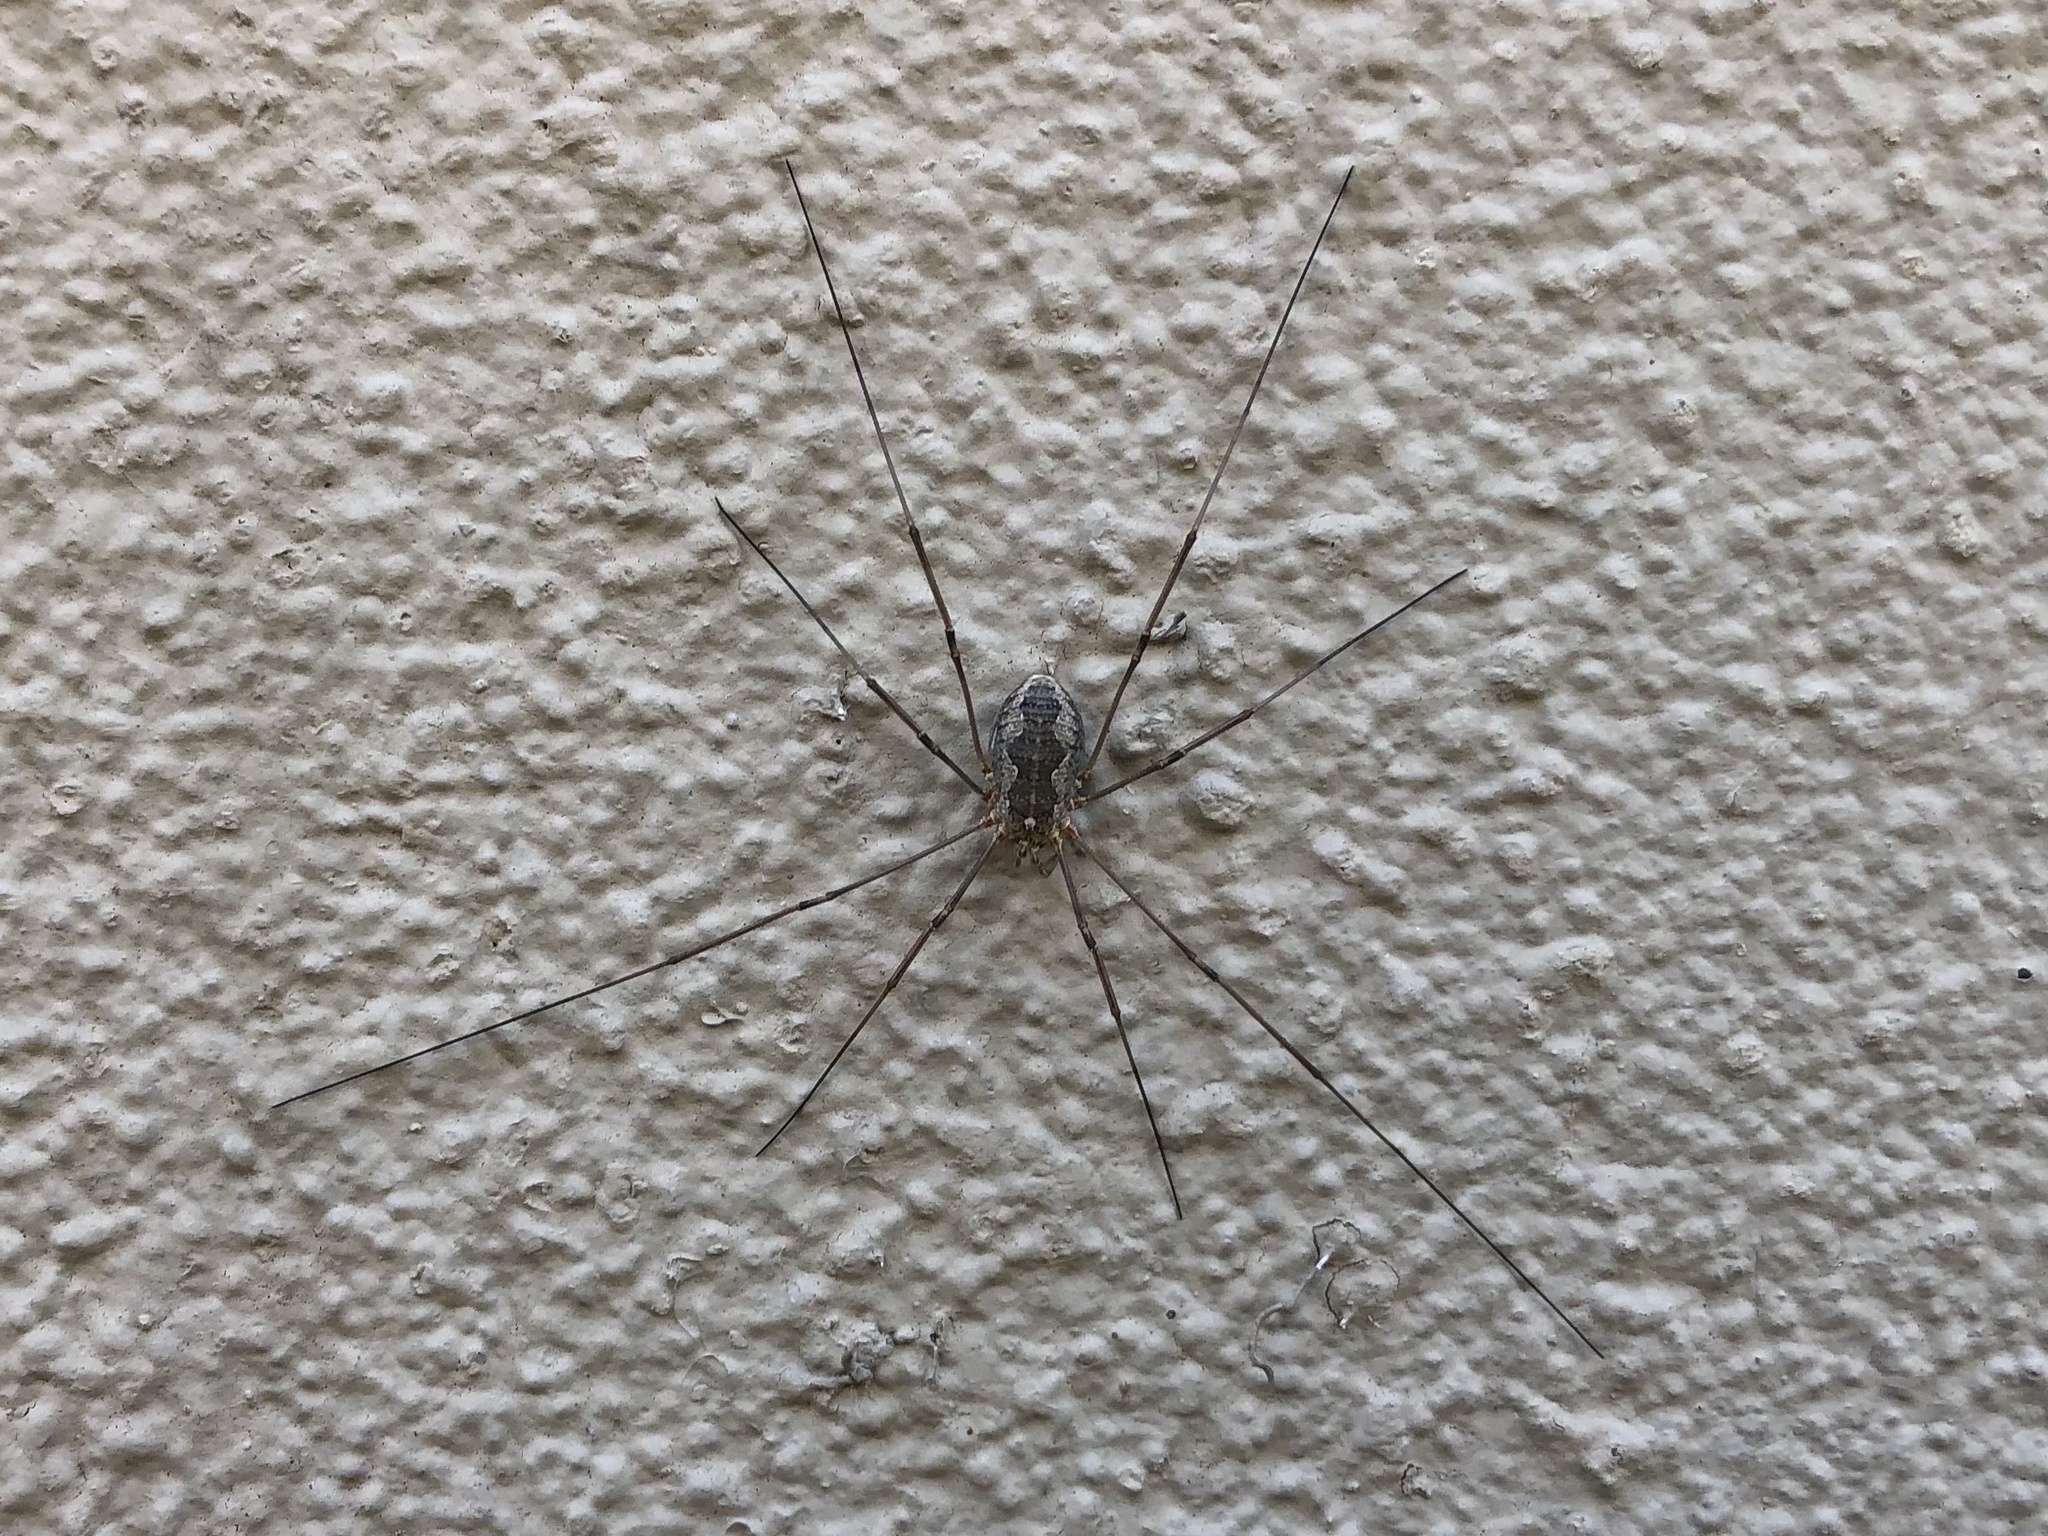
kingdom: Animalia
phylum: Arthropoda
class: Arachnida
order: Opiliones
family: Phalangiidae
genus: Phalangium
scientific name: Phalangium opilio
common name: Daddy longleg
